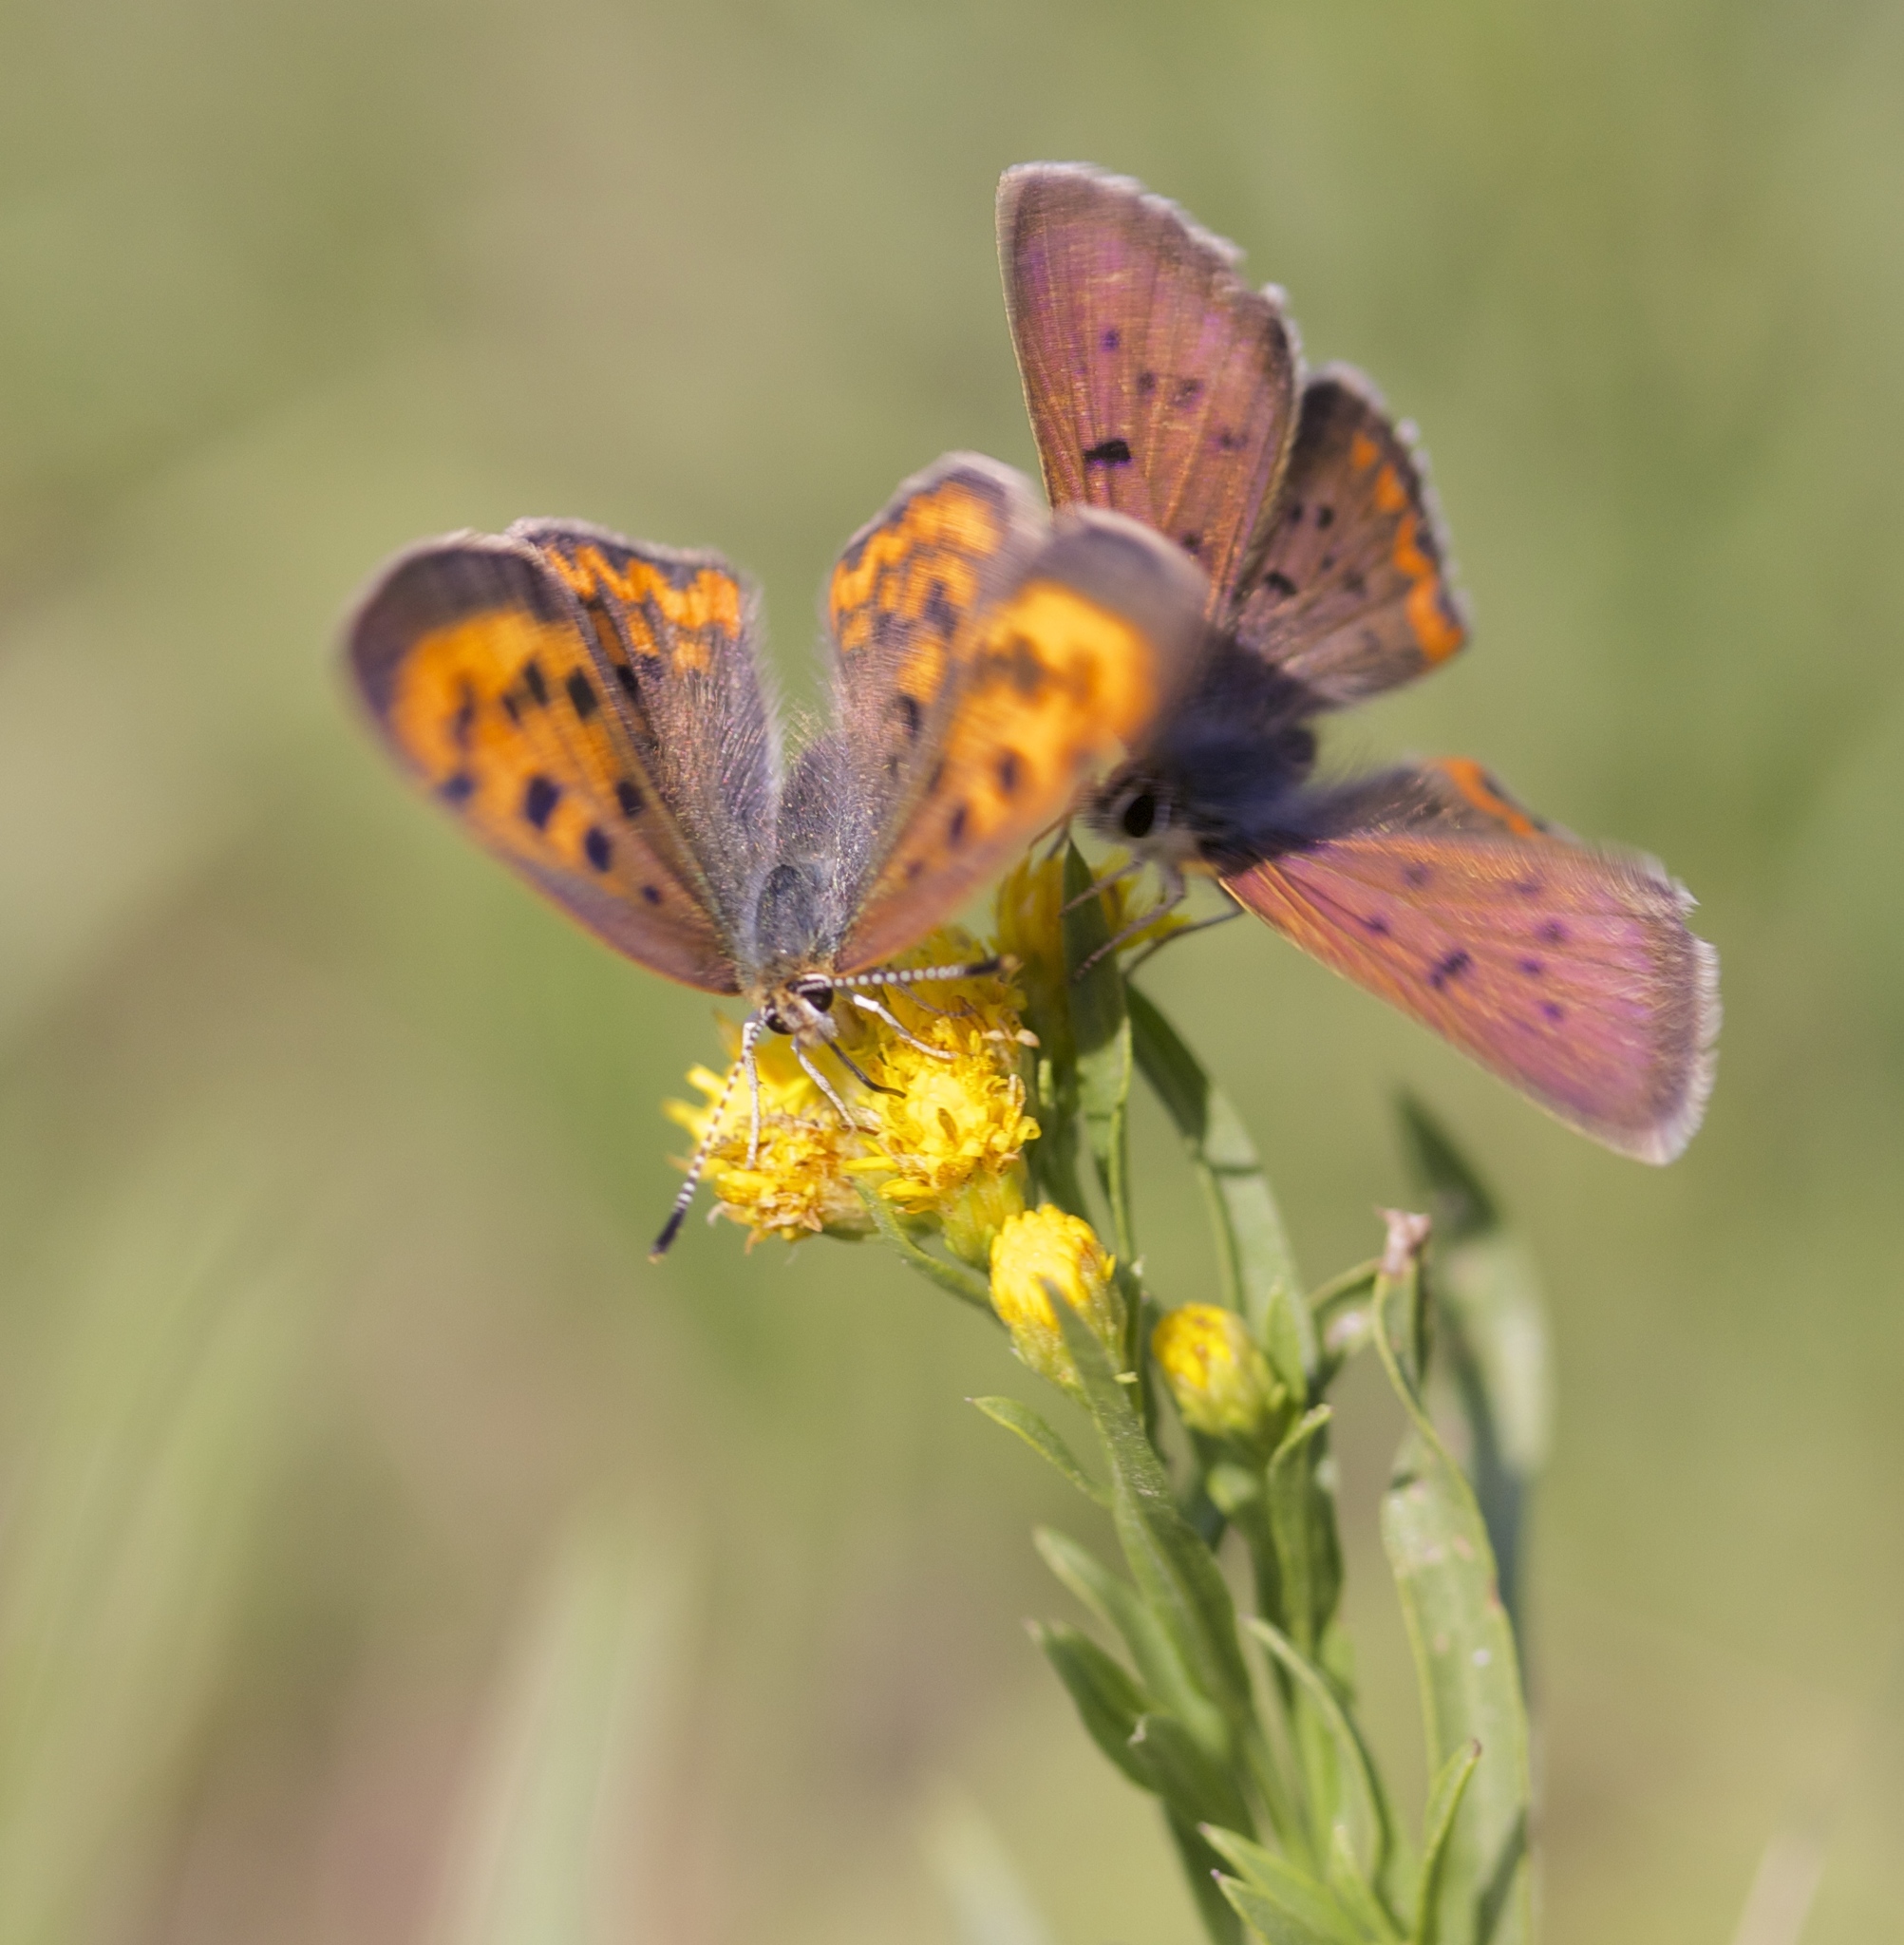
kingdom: Animalia
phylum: Arthropoda
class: Insecta
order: Lepidoptera
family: Lycaenidae
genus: Tharsalea
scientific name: Tharsalea helloides
